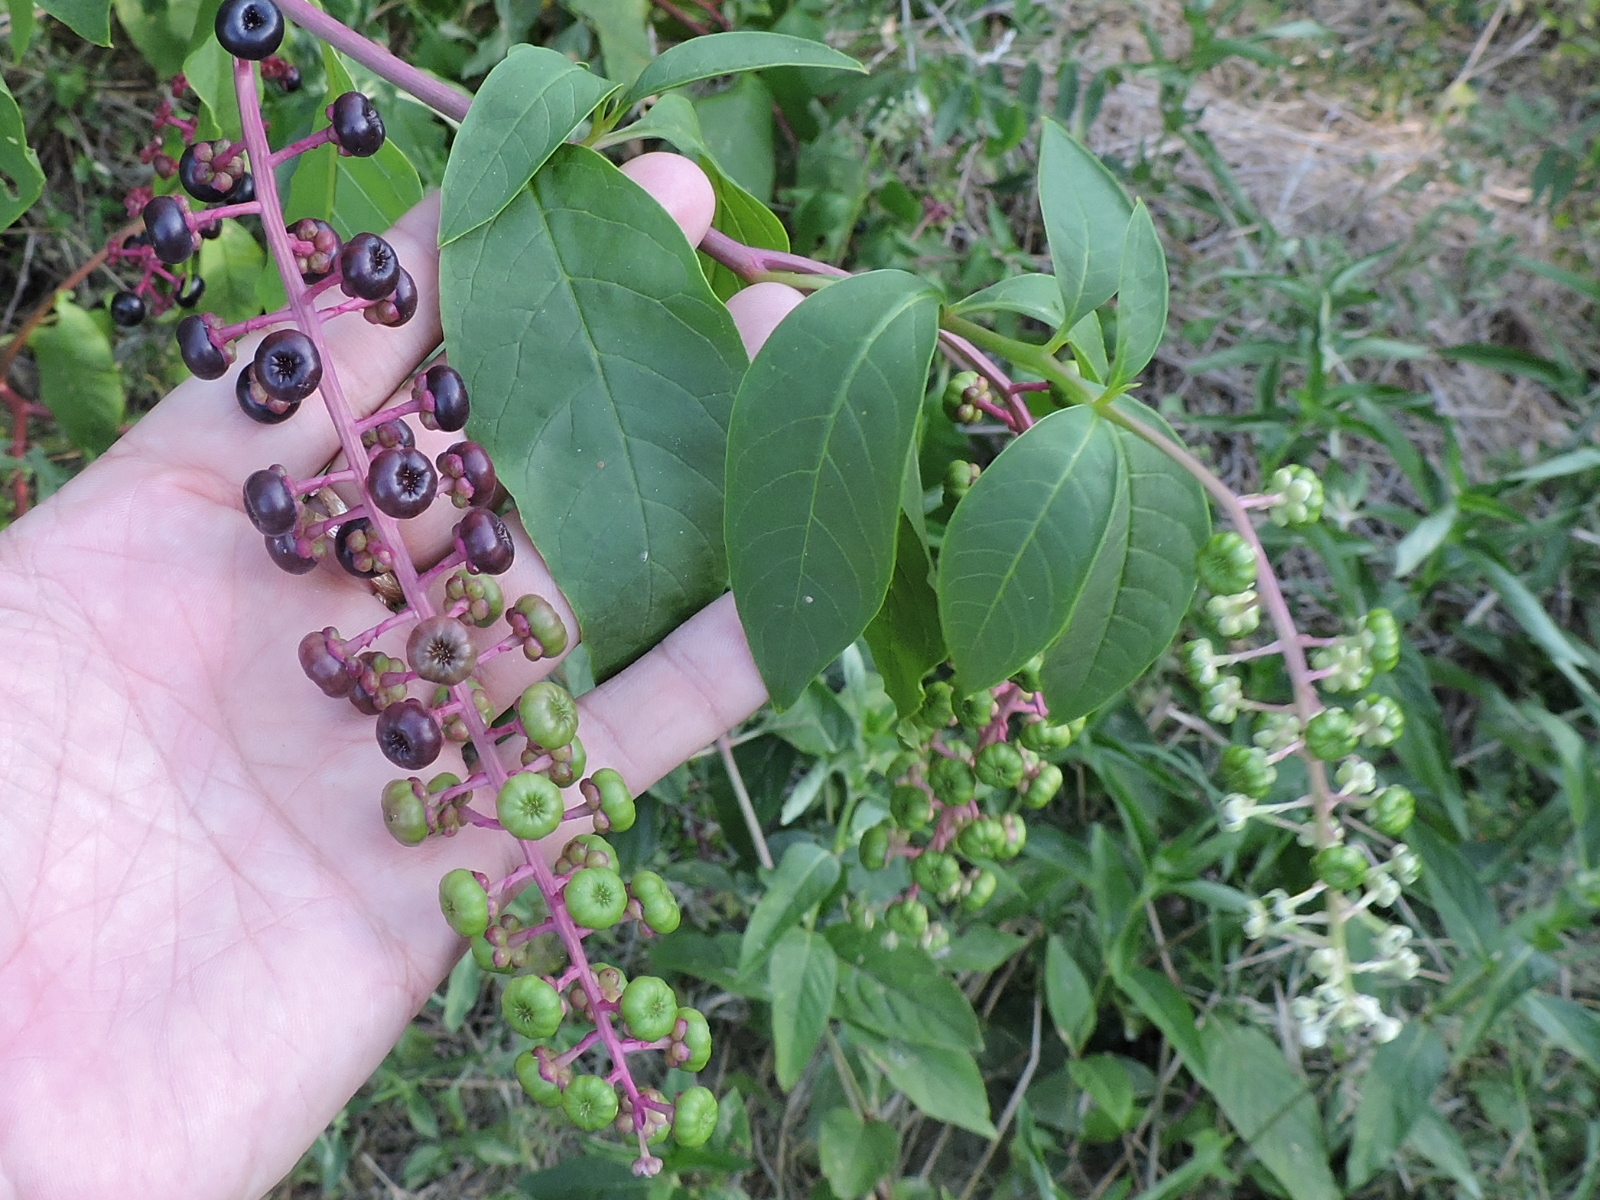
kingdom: Plantae
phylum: Tracheophyta
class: Magnoliopsida
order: Caryophyllales
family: Phytolaccaceae
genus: Phytolacca
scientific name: Phytolacca americana
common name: American pokeweed
